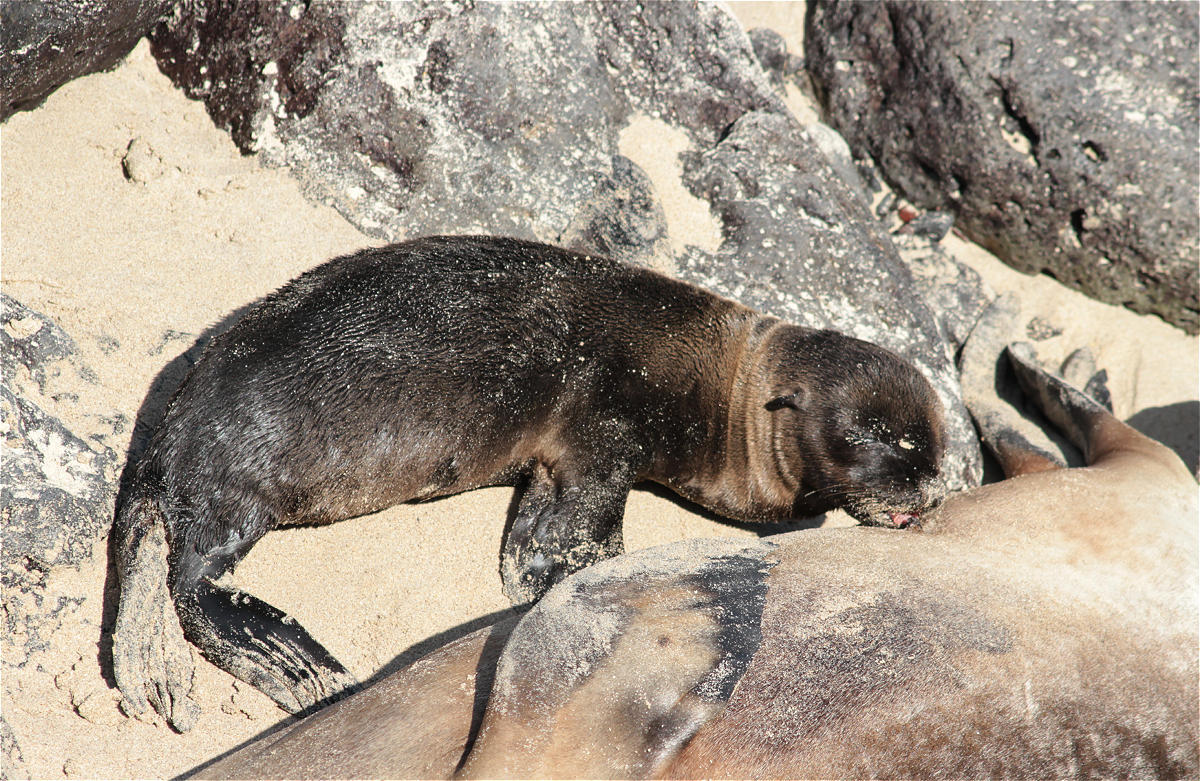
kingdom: Animalia
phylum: Chordata
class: Mammalia
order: Carnivora
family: Otariidae
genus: Zalophus
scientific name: Zalophus wollebaeki
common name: Galapagos sea lion
